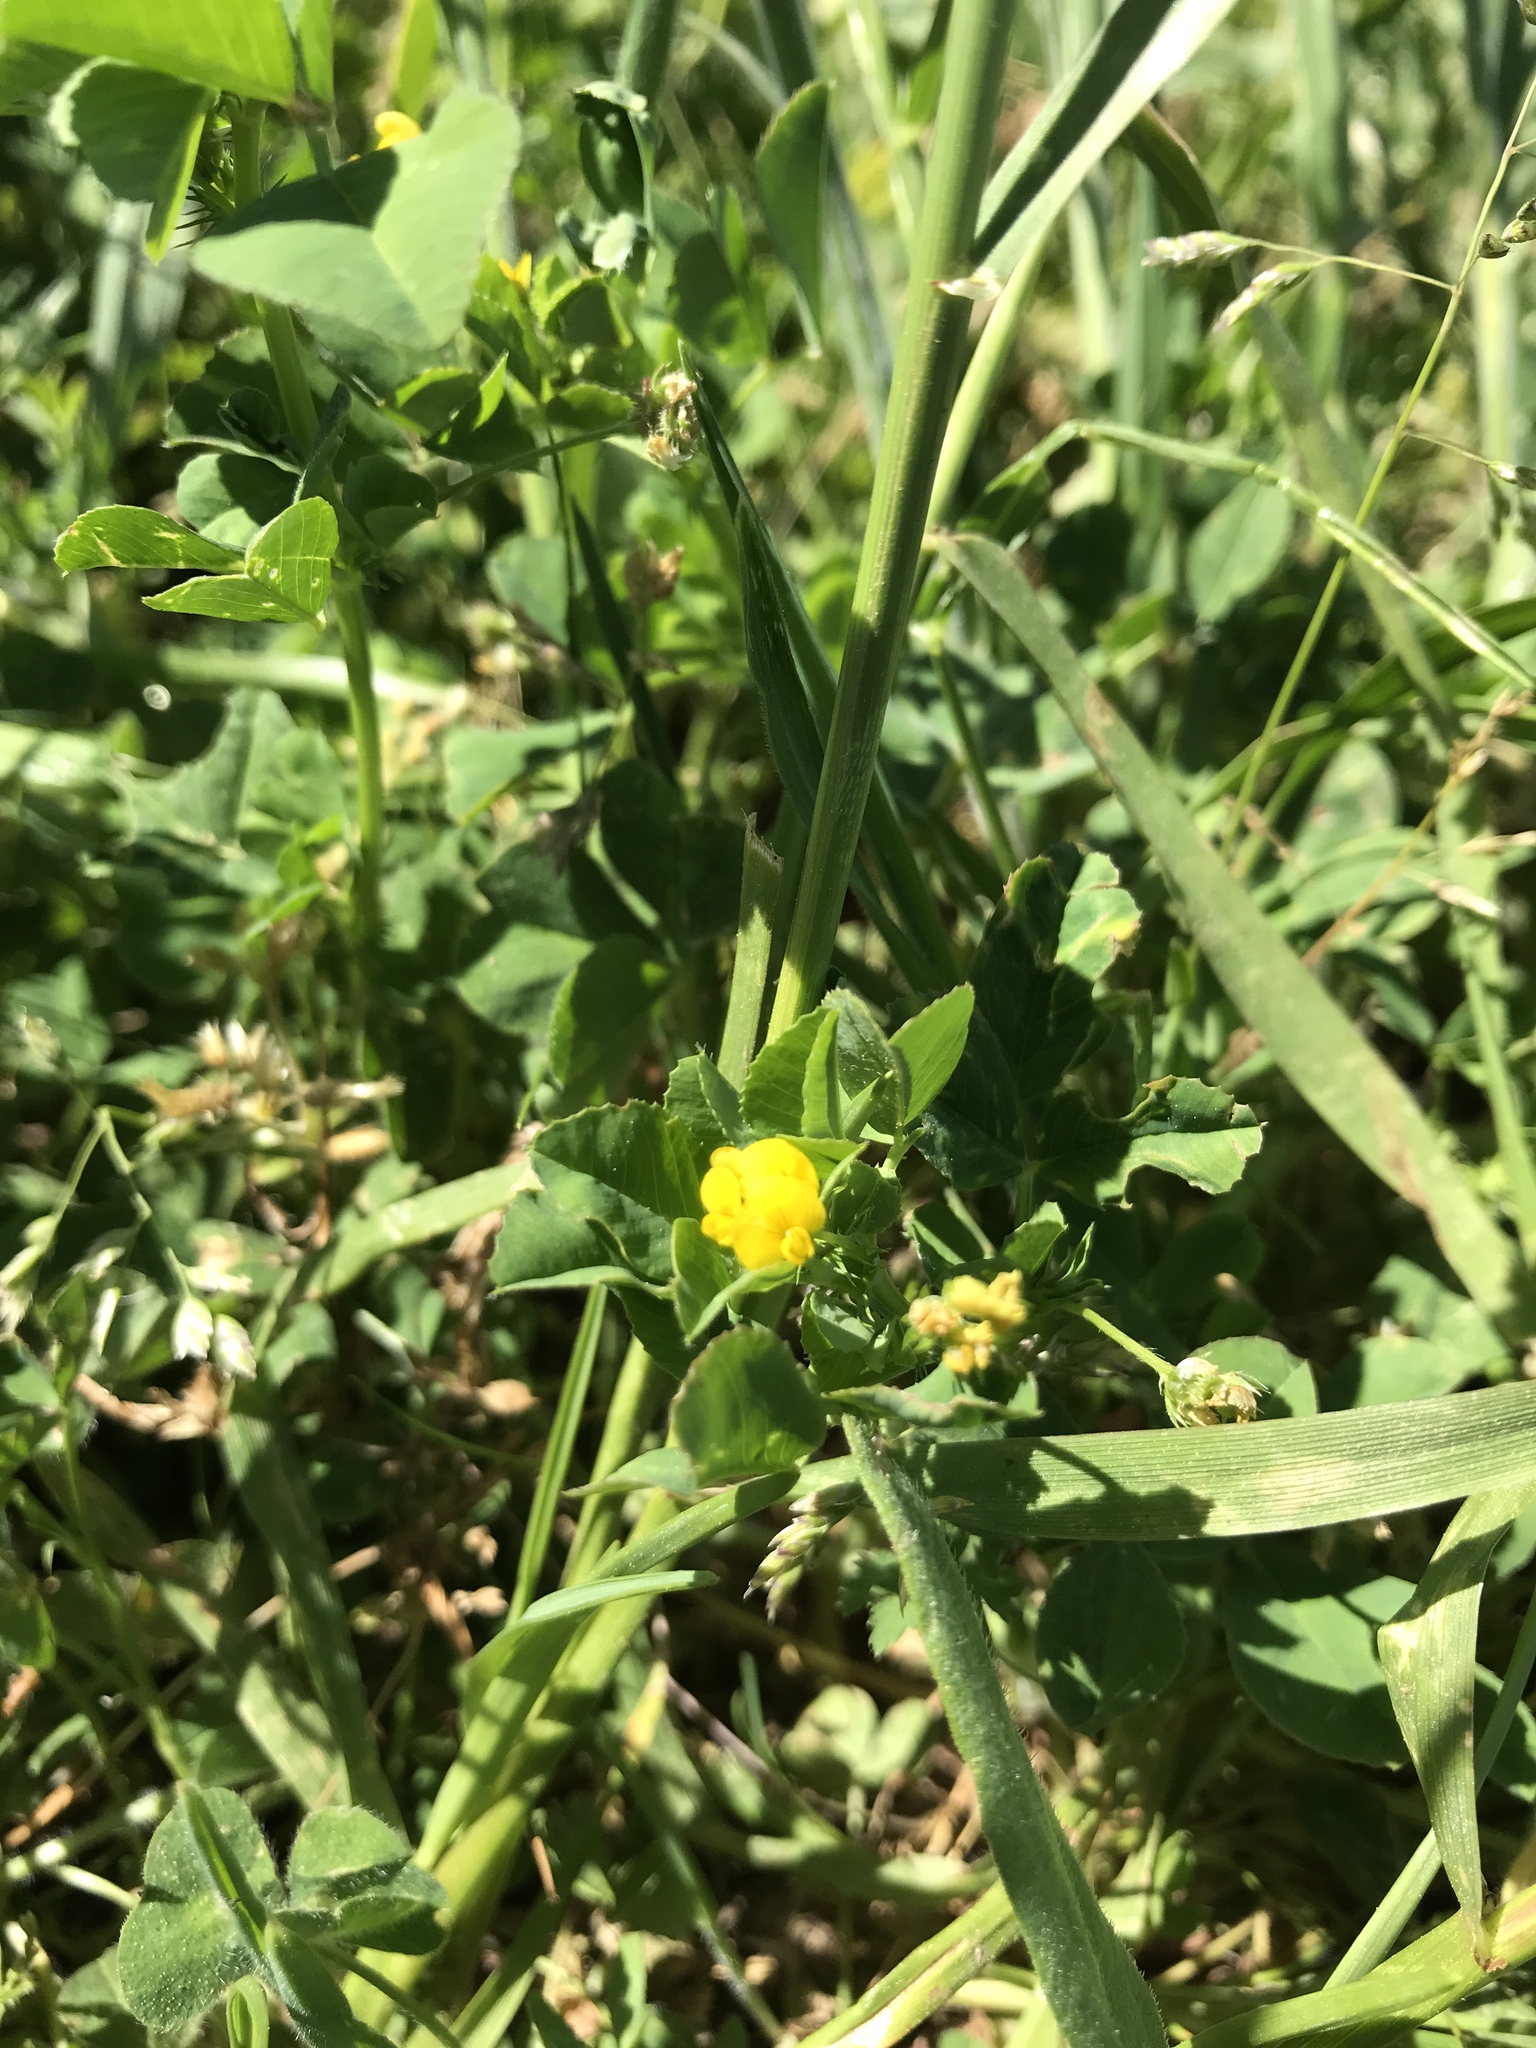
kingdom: Plantae
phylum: Tracheophyta
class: Magnoliopsida
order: Fabales
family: Fabaceae
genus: Medicago
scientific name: Medicago polymorpha
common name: Burclover
